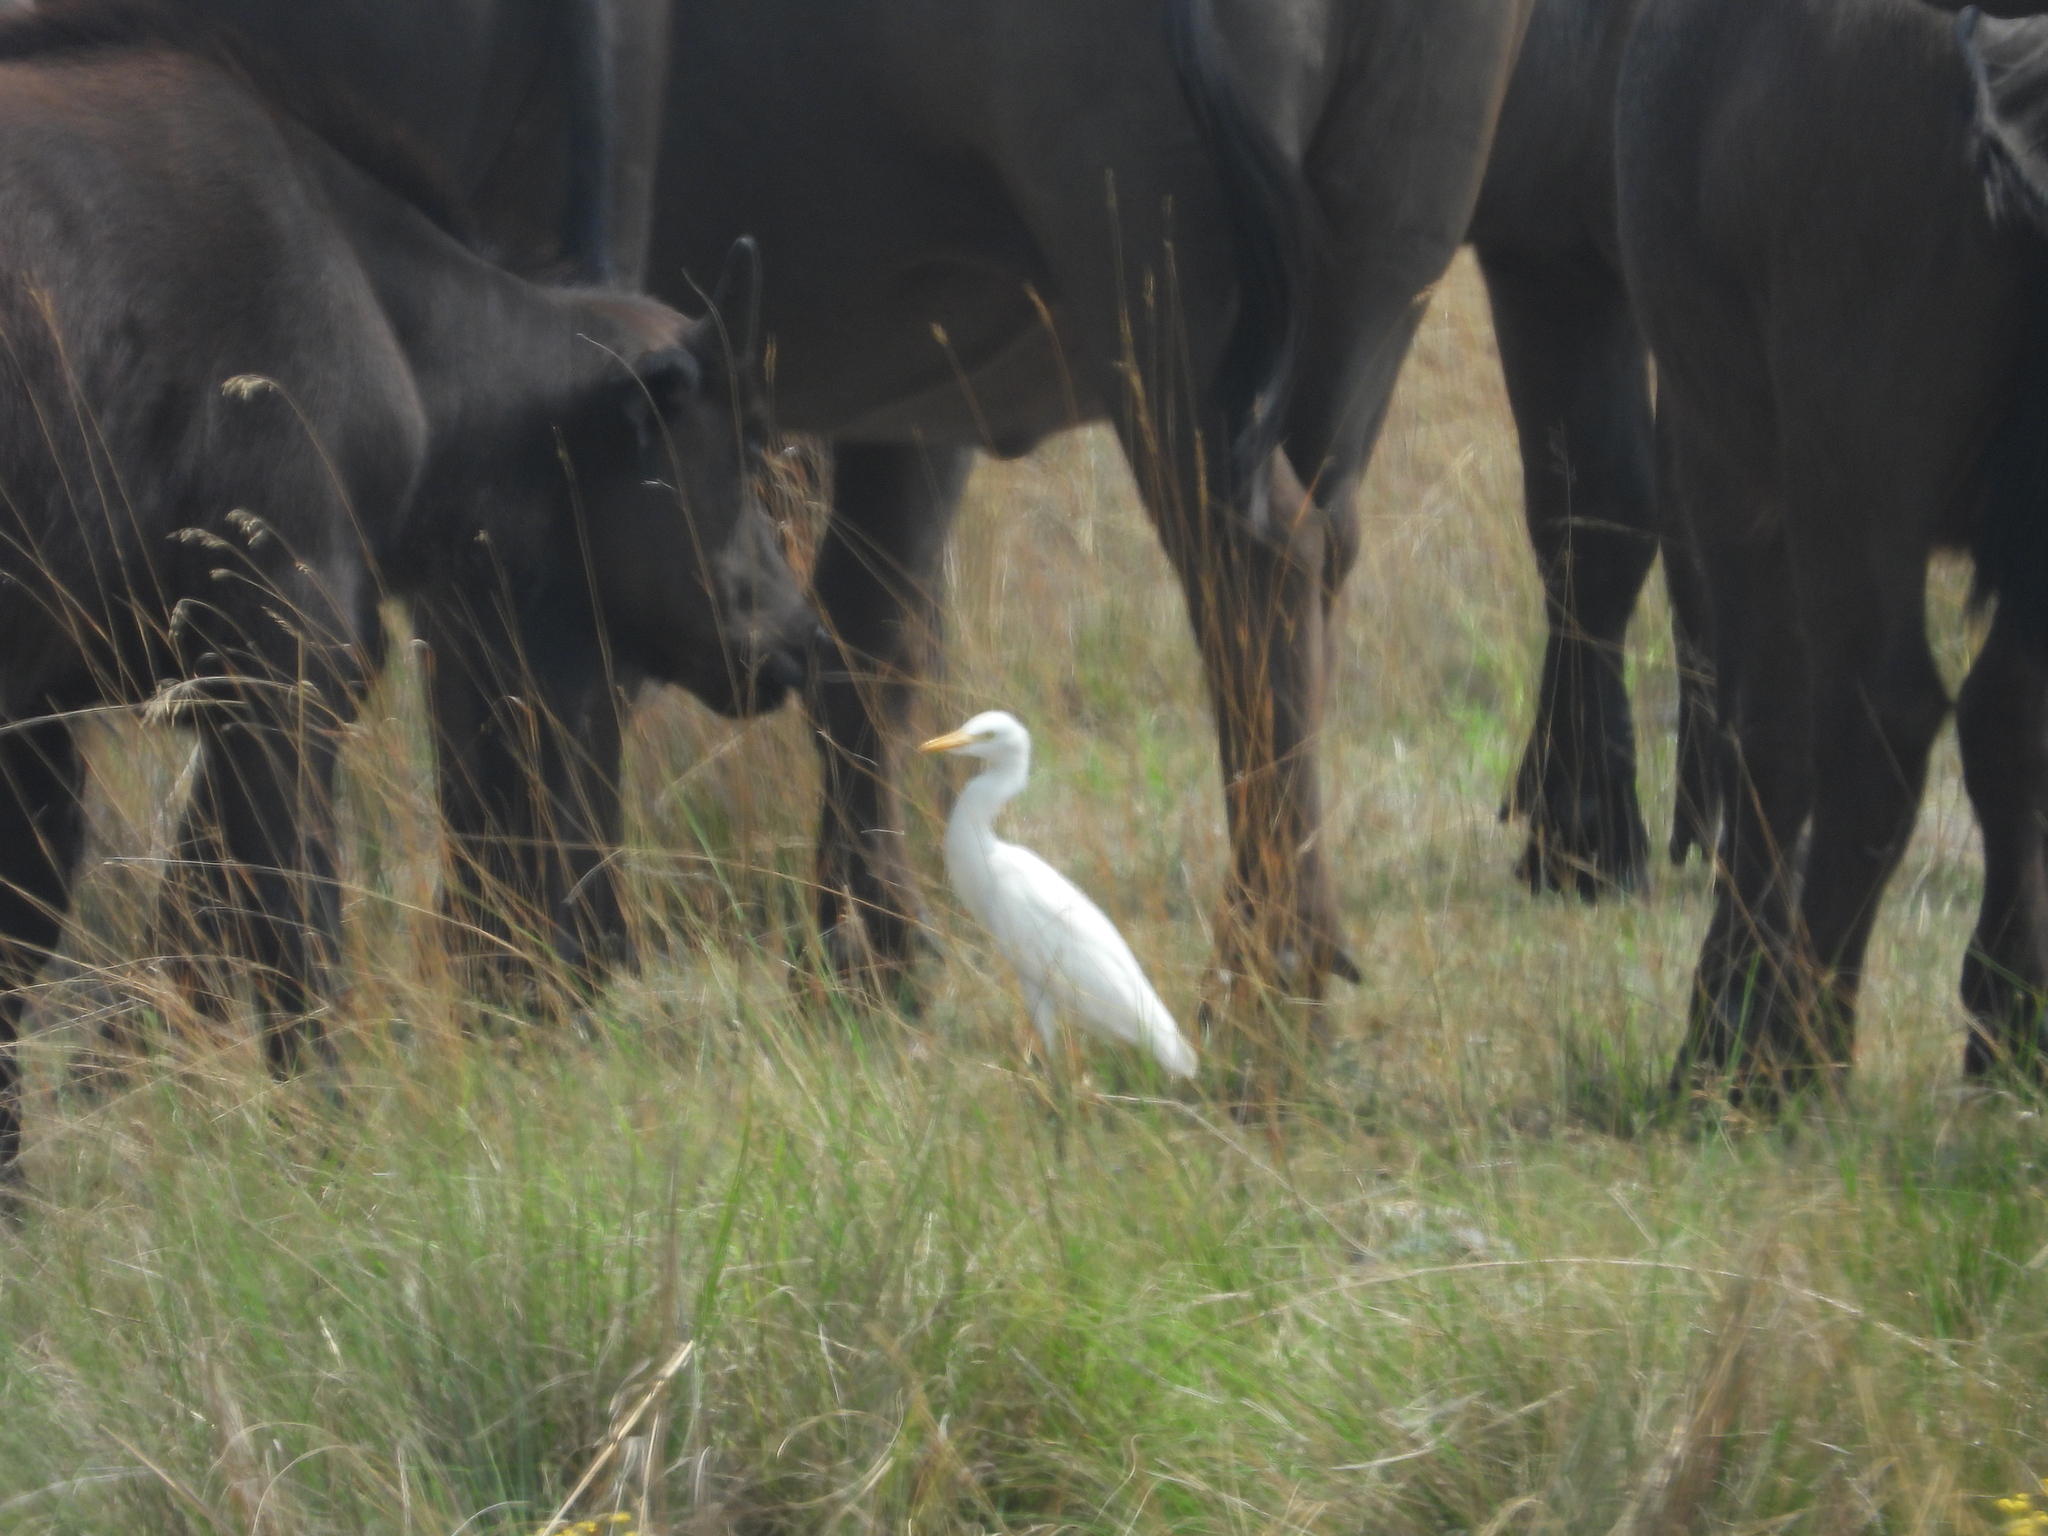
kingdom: Animalia
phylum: Chordata
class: Aves
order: Pelecaniformes
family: Ardeidae
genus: Bubulcus
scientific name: Bubulcus ibis
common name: Cattle egret
